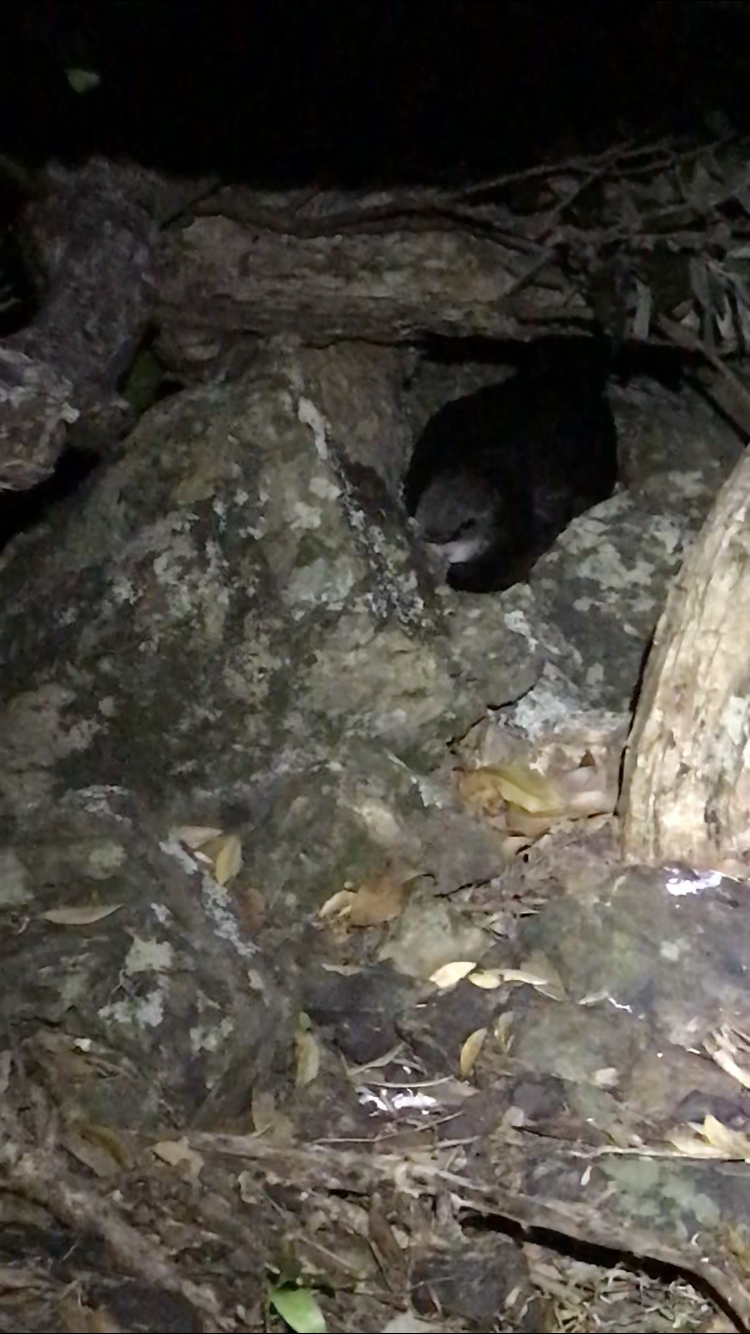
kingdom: Animalia
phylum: Chordata
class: Aves
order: Procellariiformes
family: Procellariidae
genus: Pterodroma
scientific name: Pterodroma macroptera
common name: Great-winged petrel
